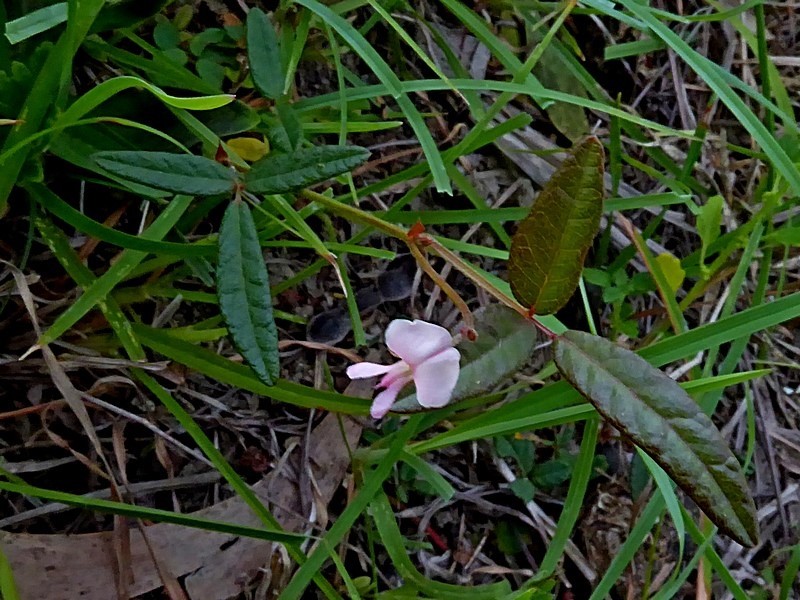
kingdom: Plantae
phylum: Tracheophyta
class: Magnoliopsida
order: Fabales
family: Fabaceae
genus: Grona
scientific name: Grona varians
